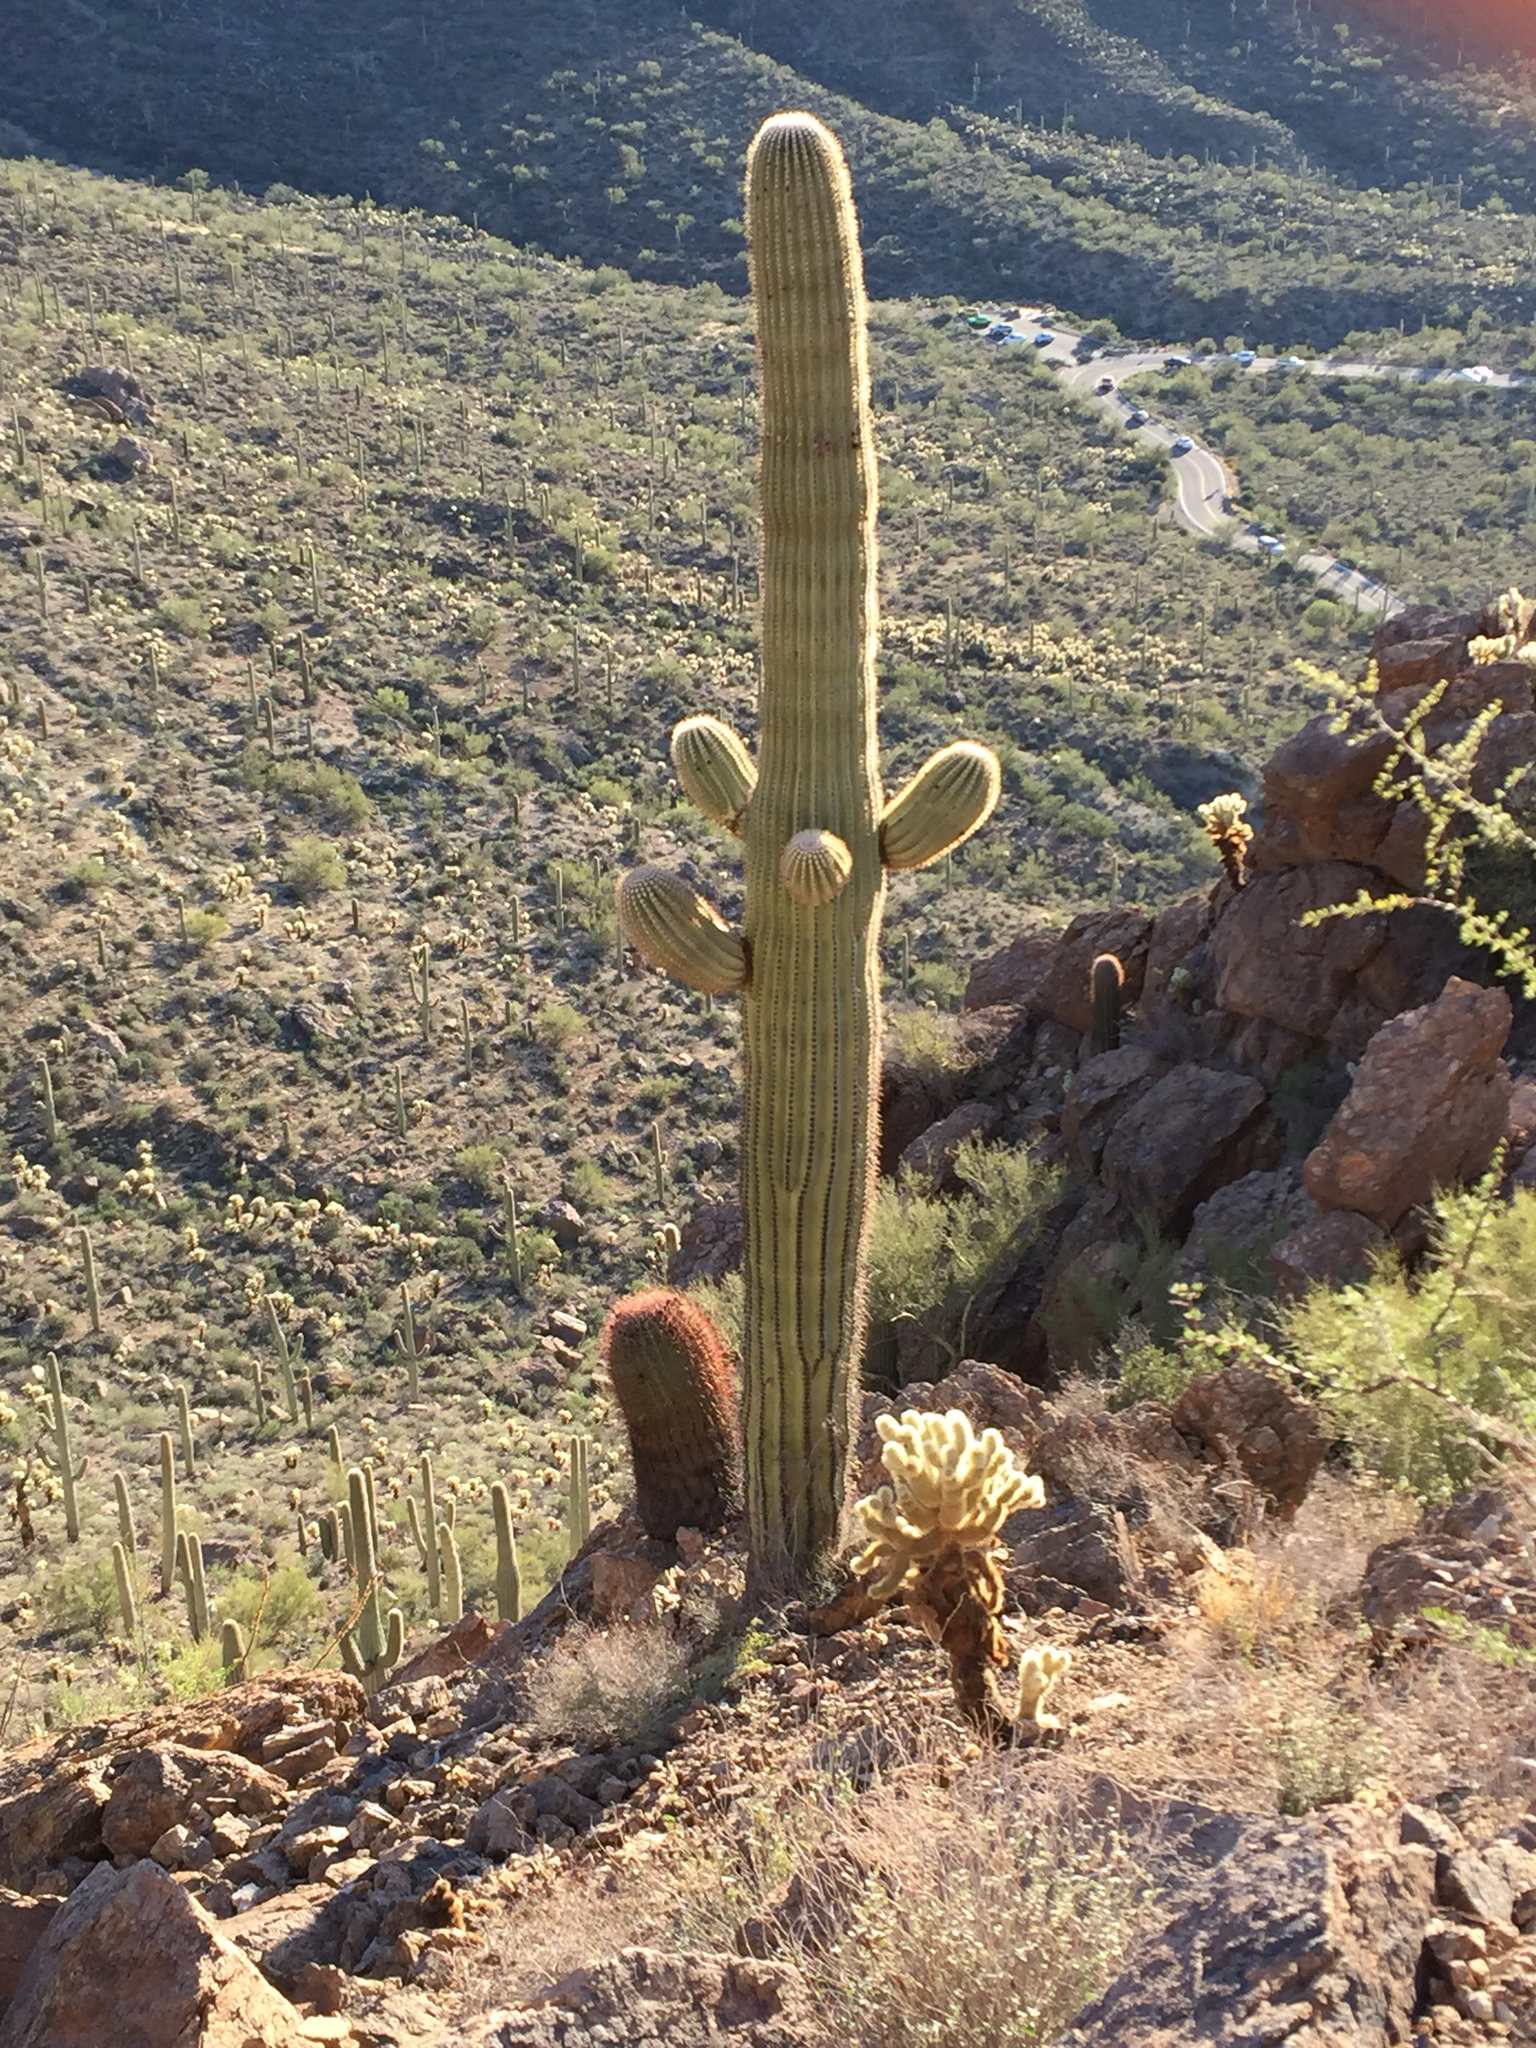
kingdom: Plantae
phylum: Tracheophyta
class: Magnoliopsida
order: Caryophyllales
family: Cactaceae
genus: Carnegiea
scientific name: Carnegiea gigantea
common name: Saguaro
